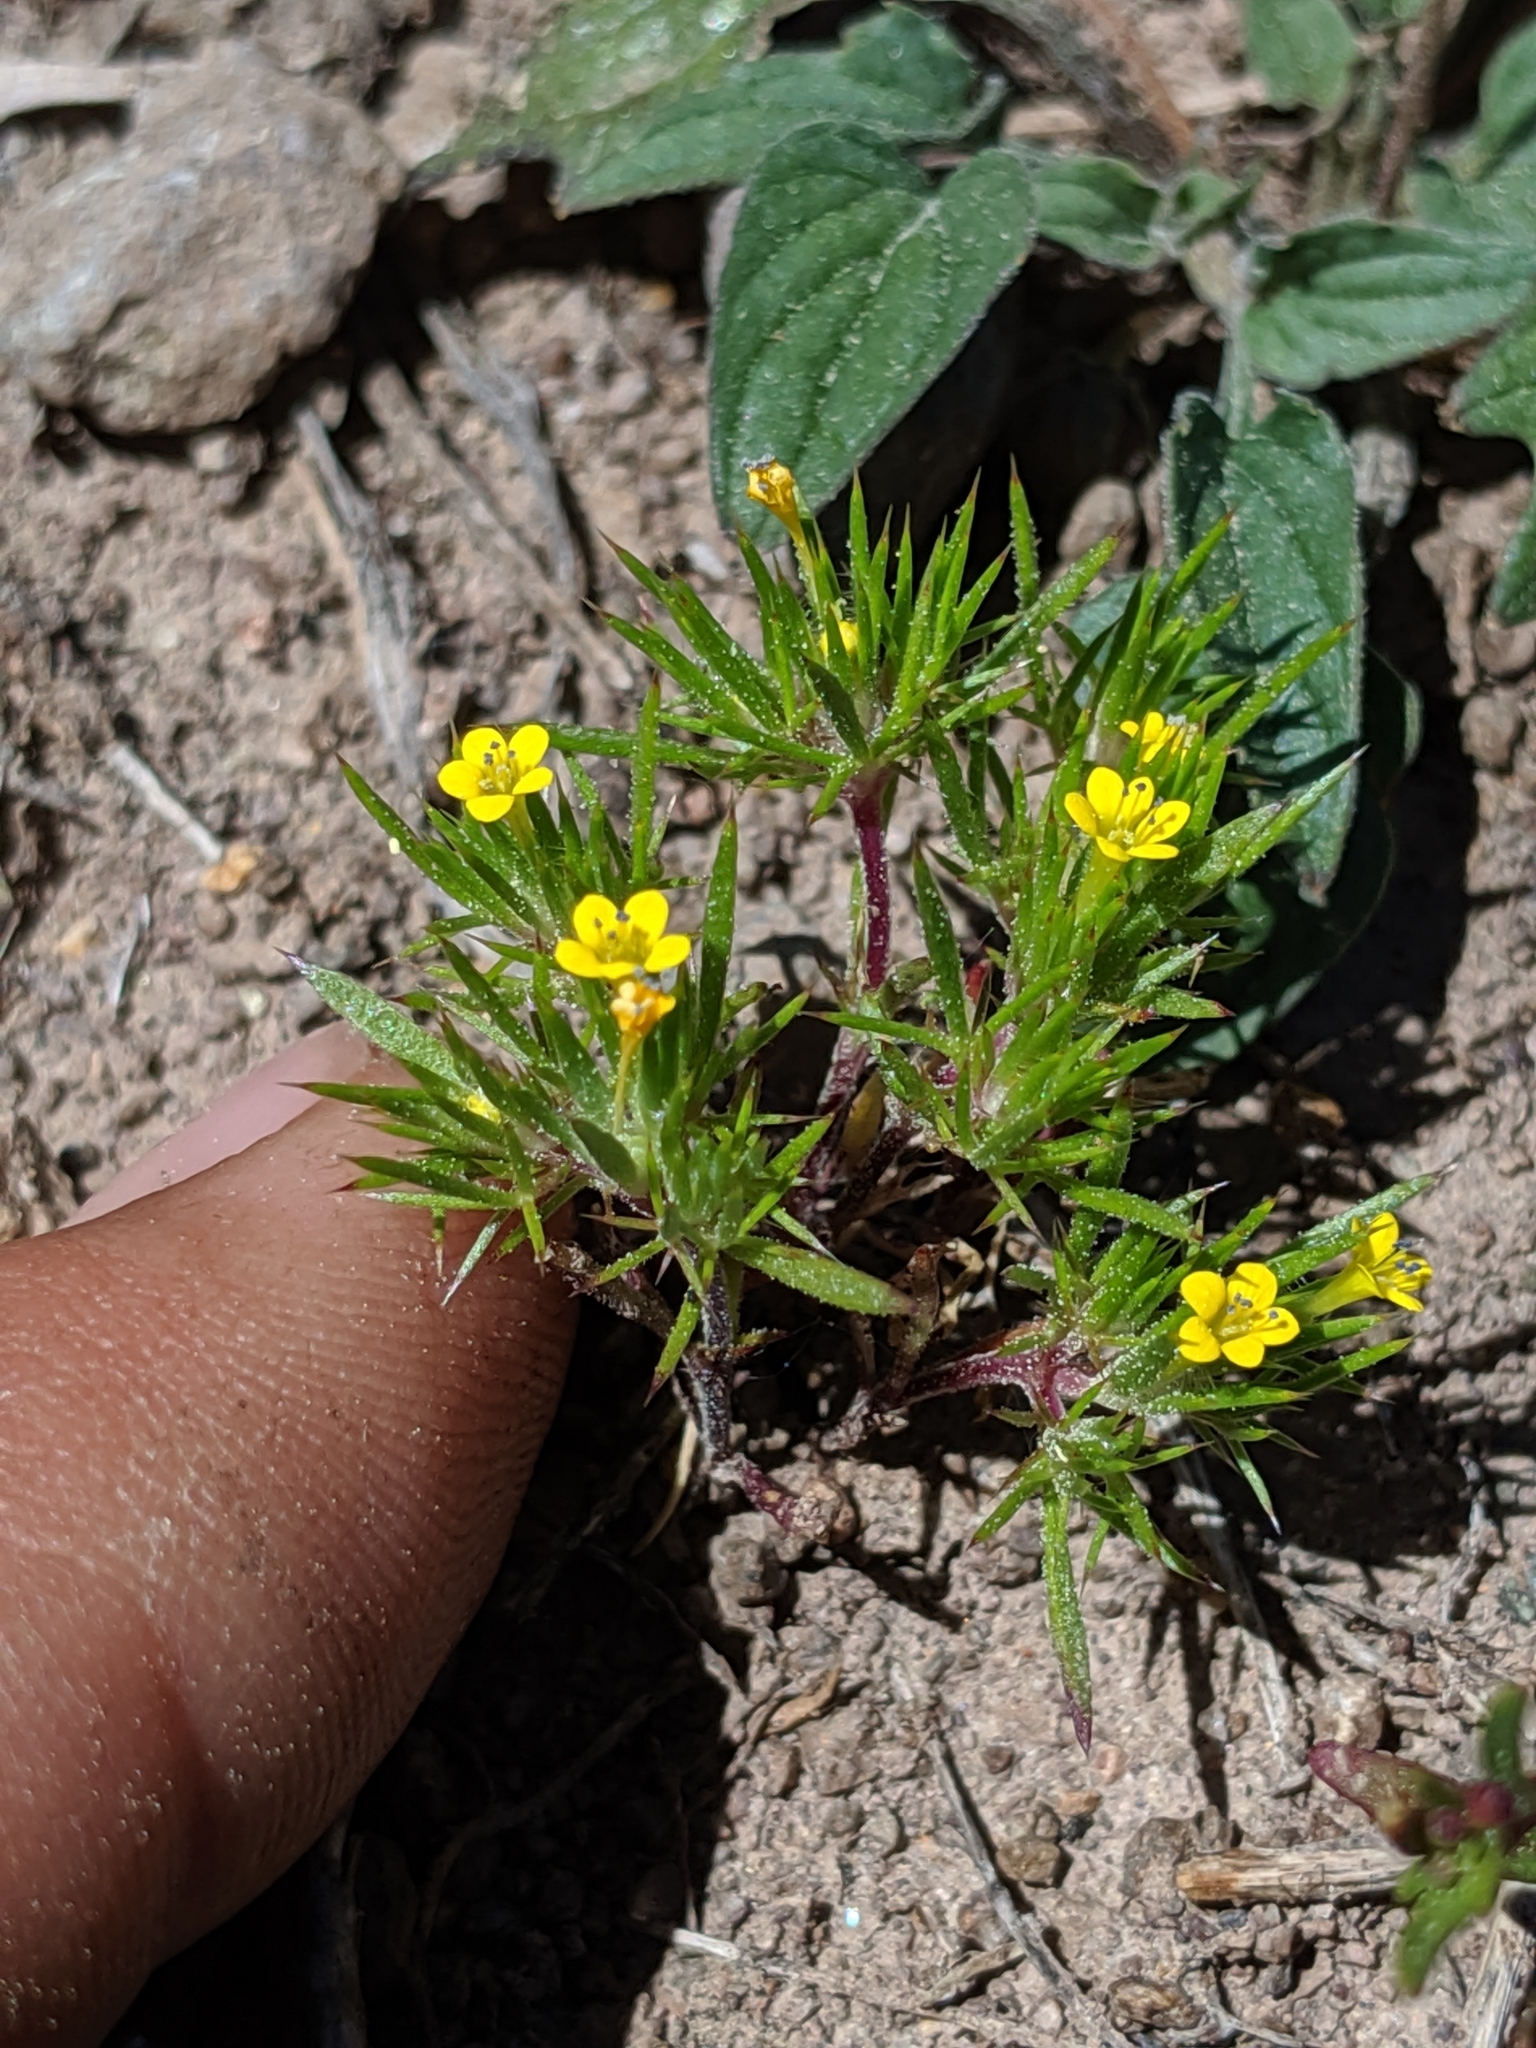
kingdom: Plantae
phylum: Tracheophyta
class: Magnoliopsida
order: Ericales
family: Polemoniaceae
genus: Navarretia
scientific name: Navarretia breweri
